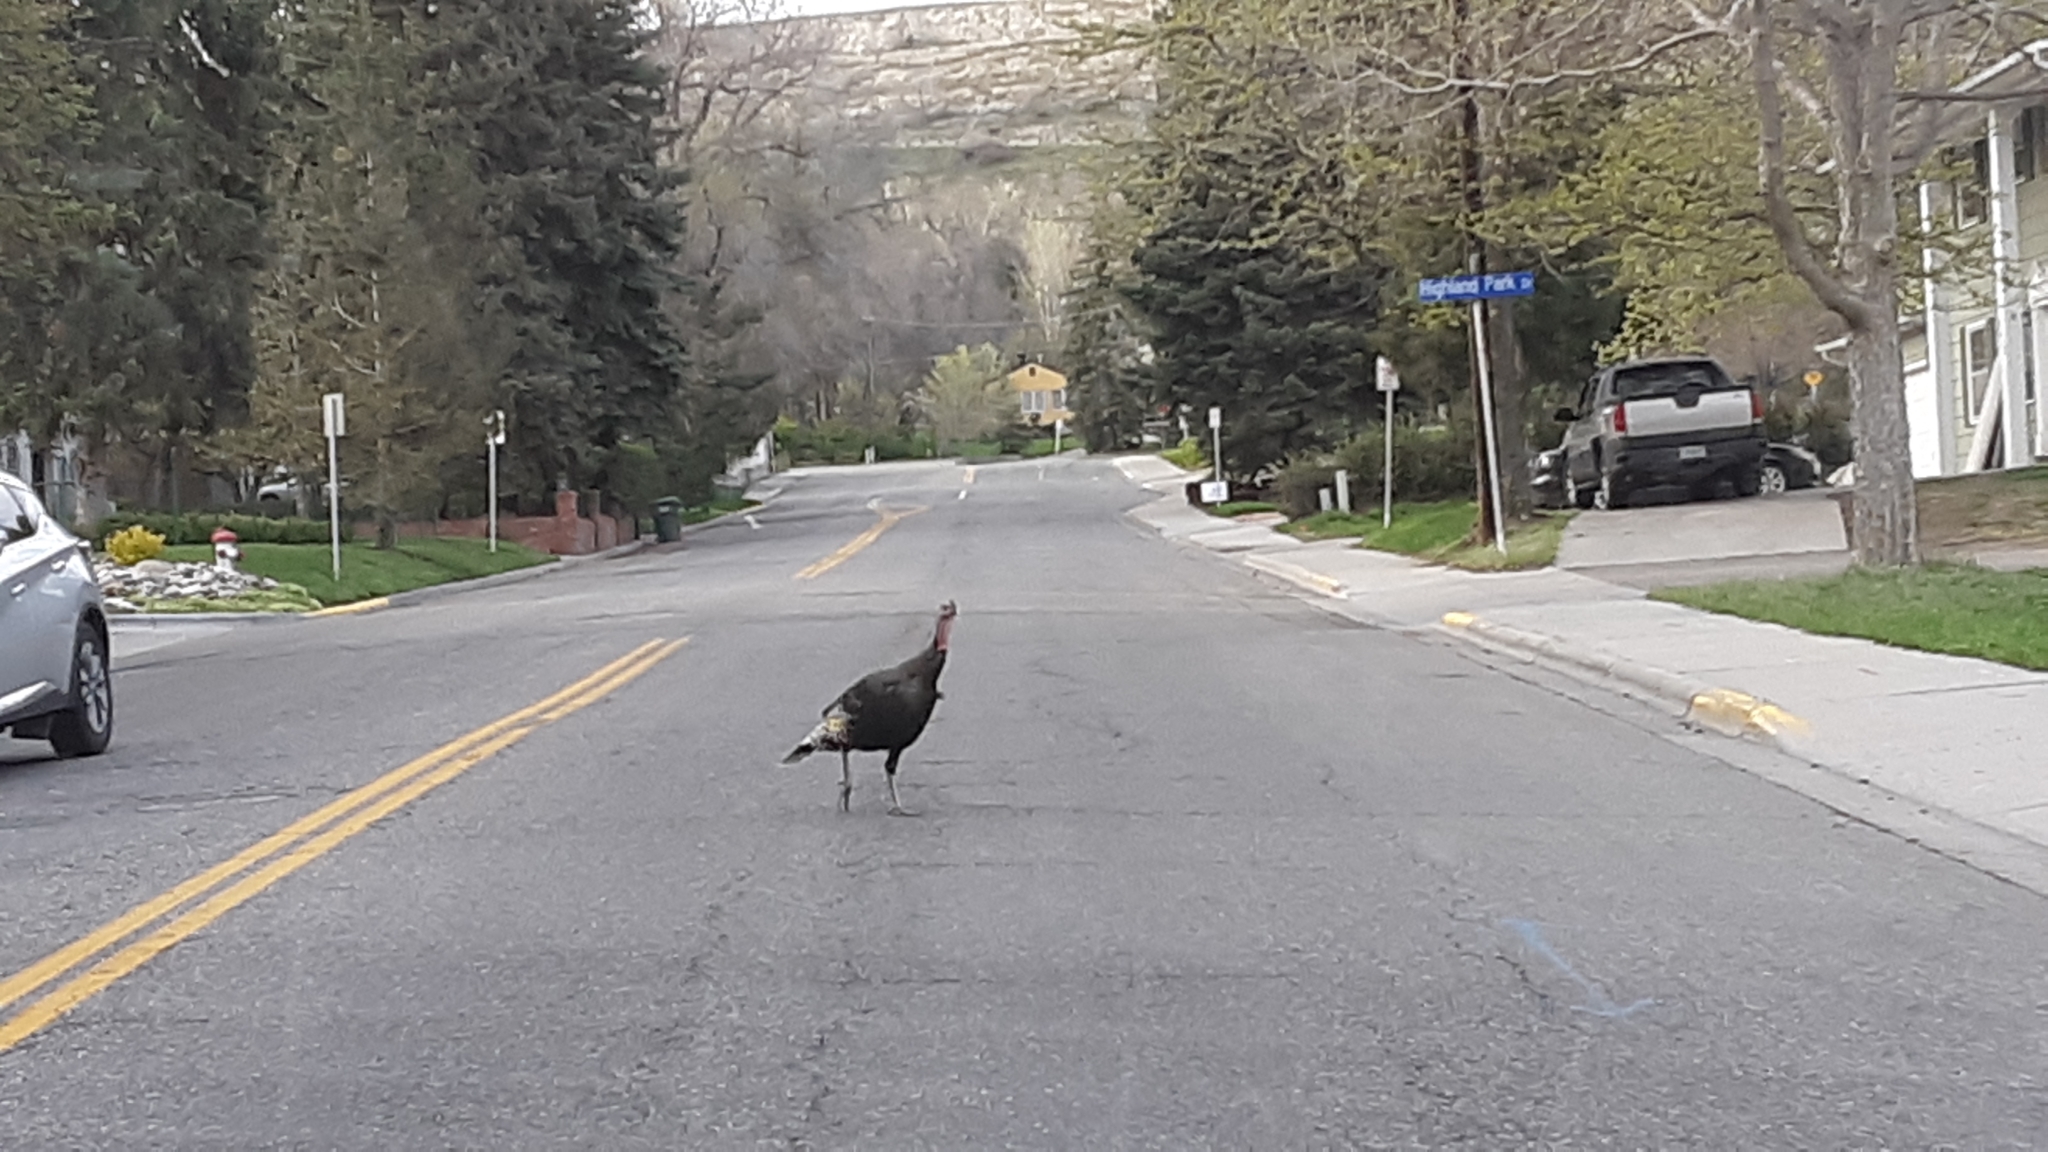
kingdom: Animalia
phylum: Chordata
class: Aves
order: Galliformes
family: Phasianidae
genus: Meleagris
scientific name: Meleagris gallopavo
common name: Wild turkey
